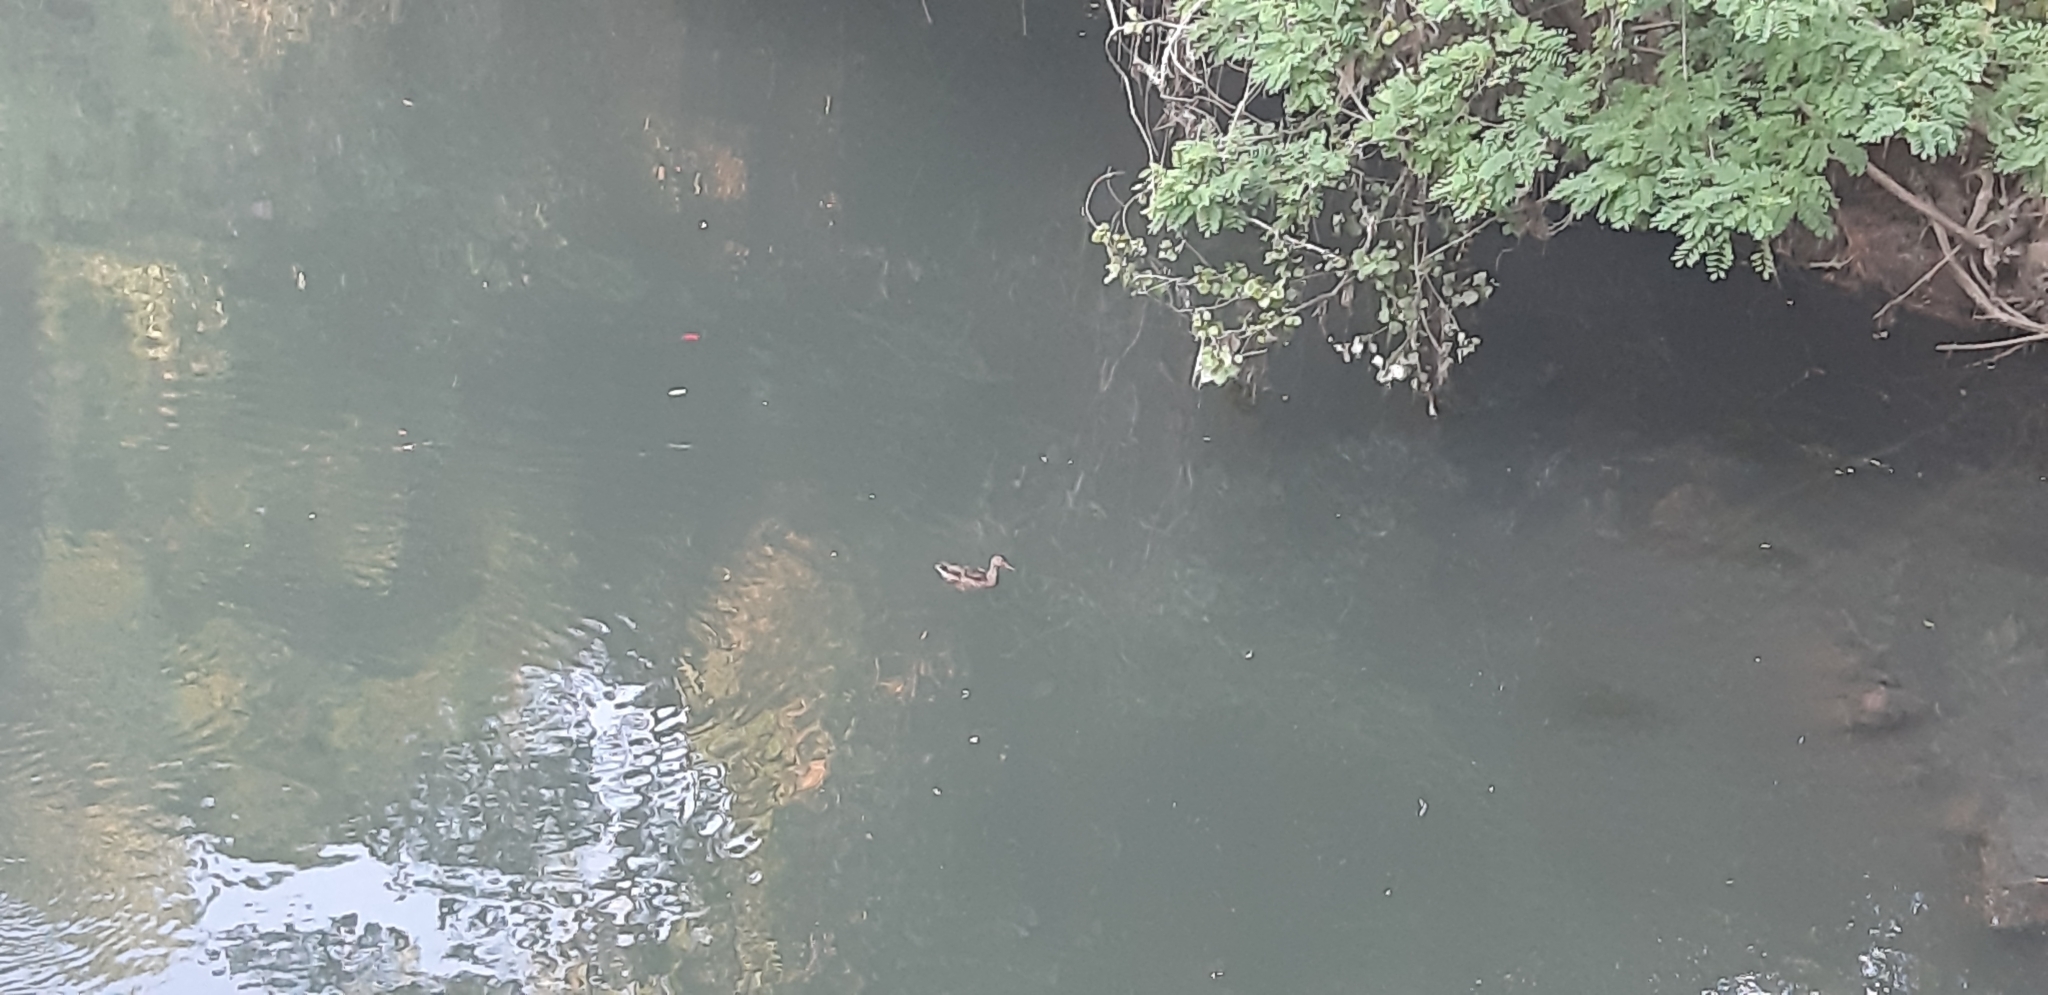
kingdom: Animalia
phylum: Chordata
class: Aves
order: Anseriformes
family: Anatidae
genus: Anas
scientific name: Anas platyrhynchos
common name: Mallard
